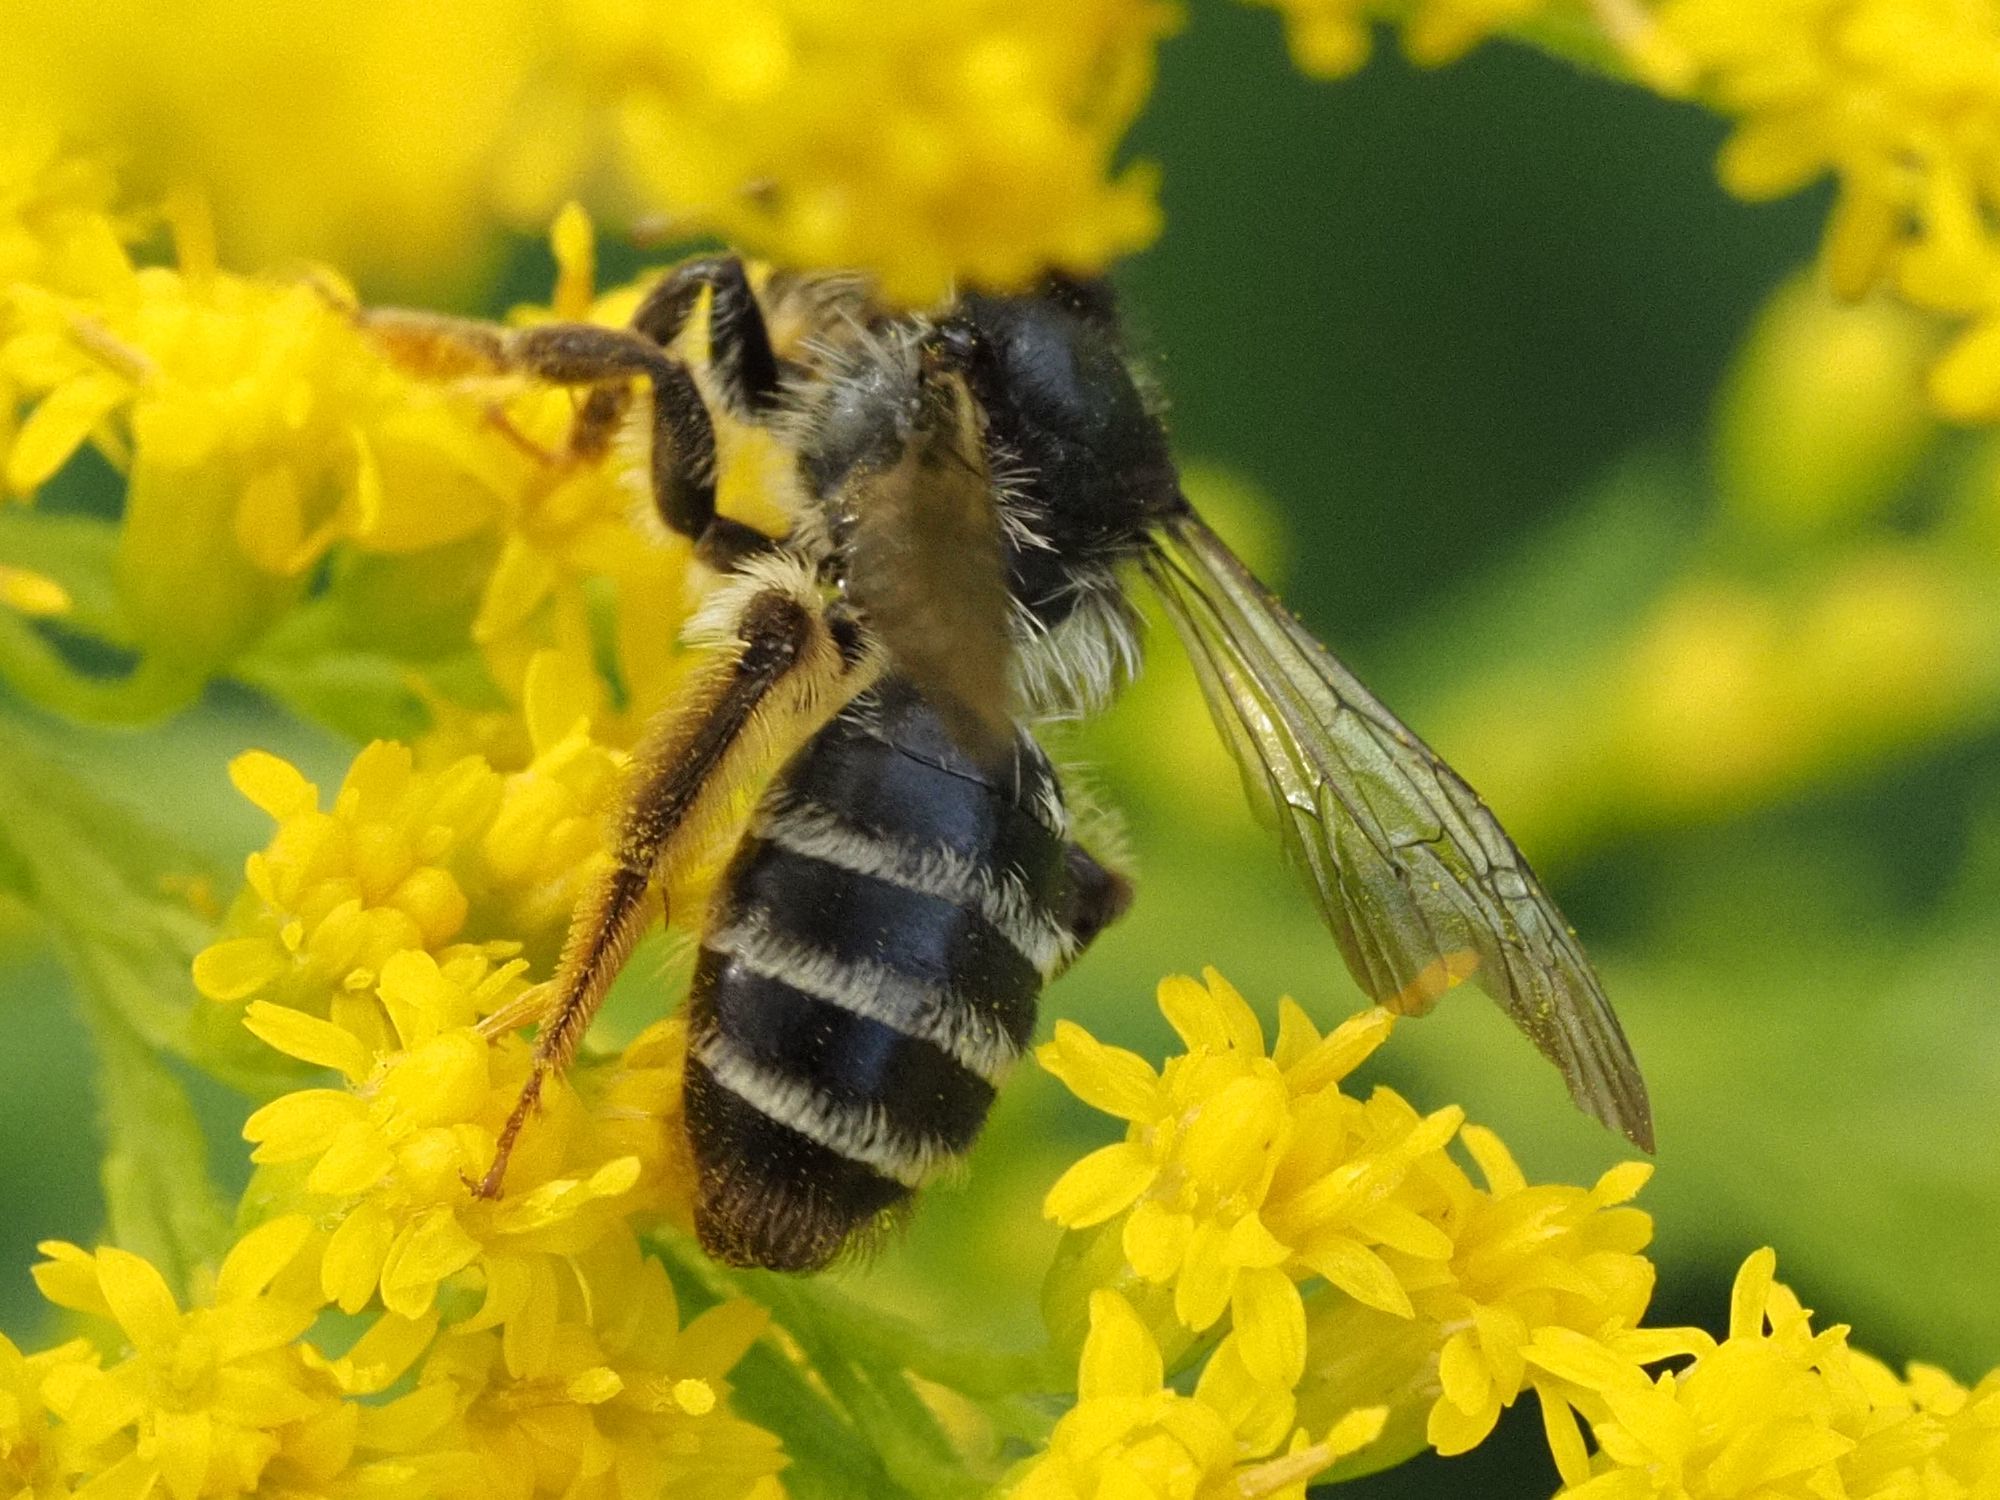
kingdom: Animalia
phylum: Arthropoda
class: Insecta
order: Hymenoptera
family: Andrenidae
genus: Andrena
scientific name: Andrena denticulata
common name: Grey-banded mining bee
